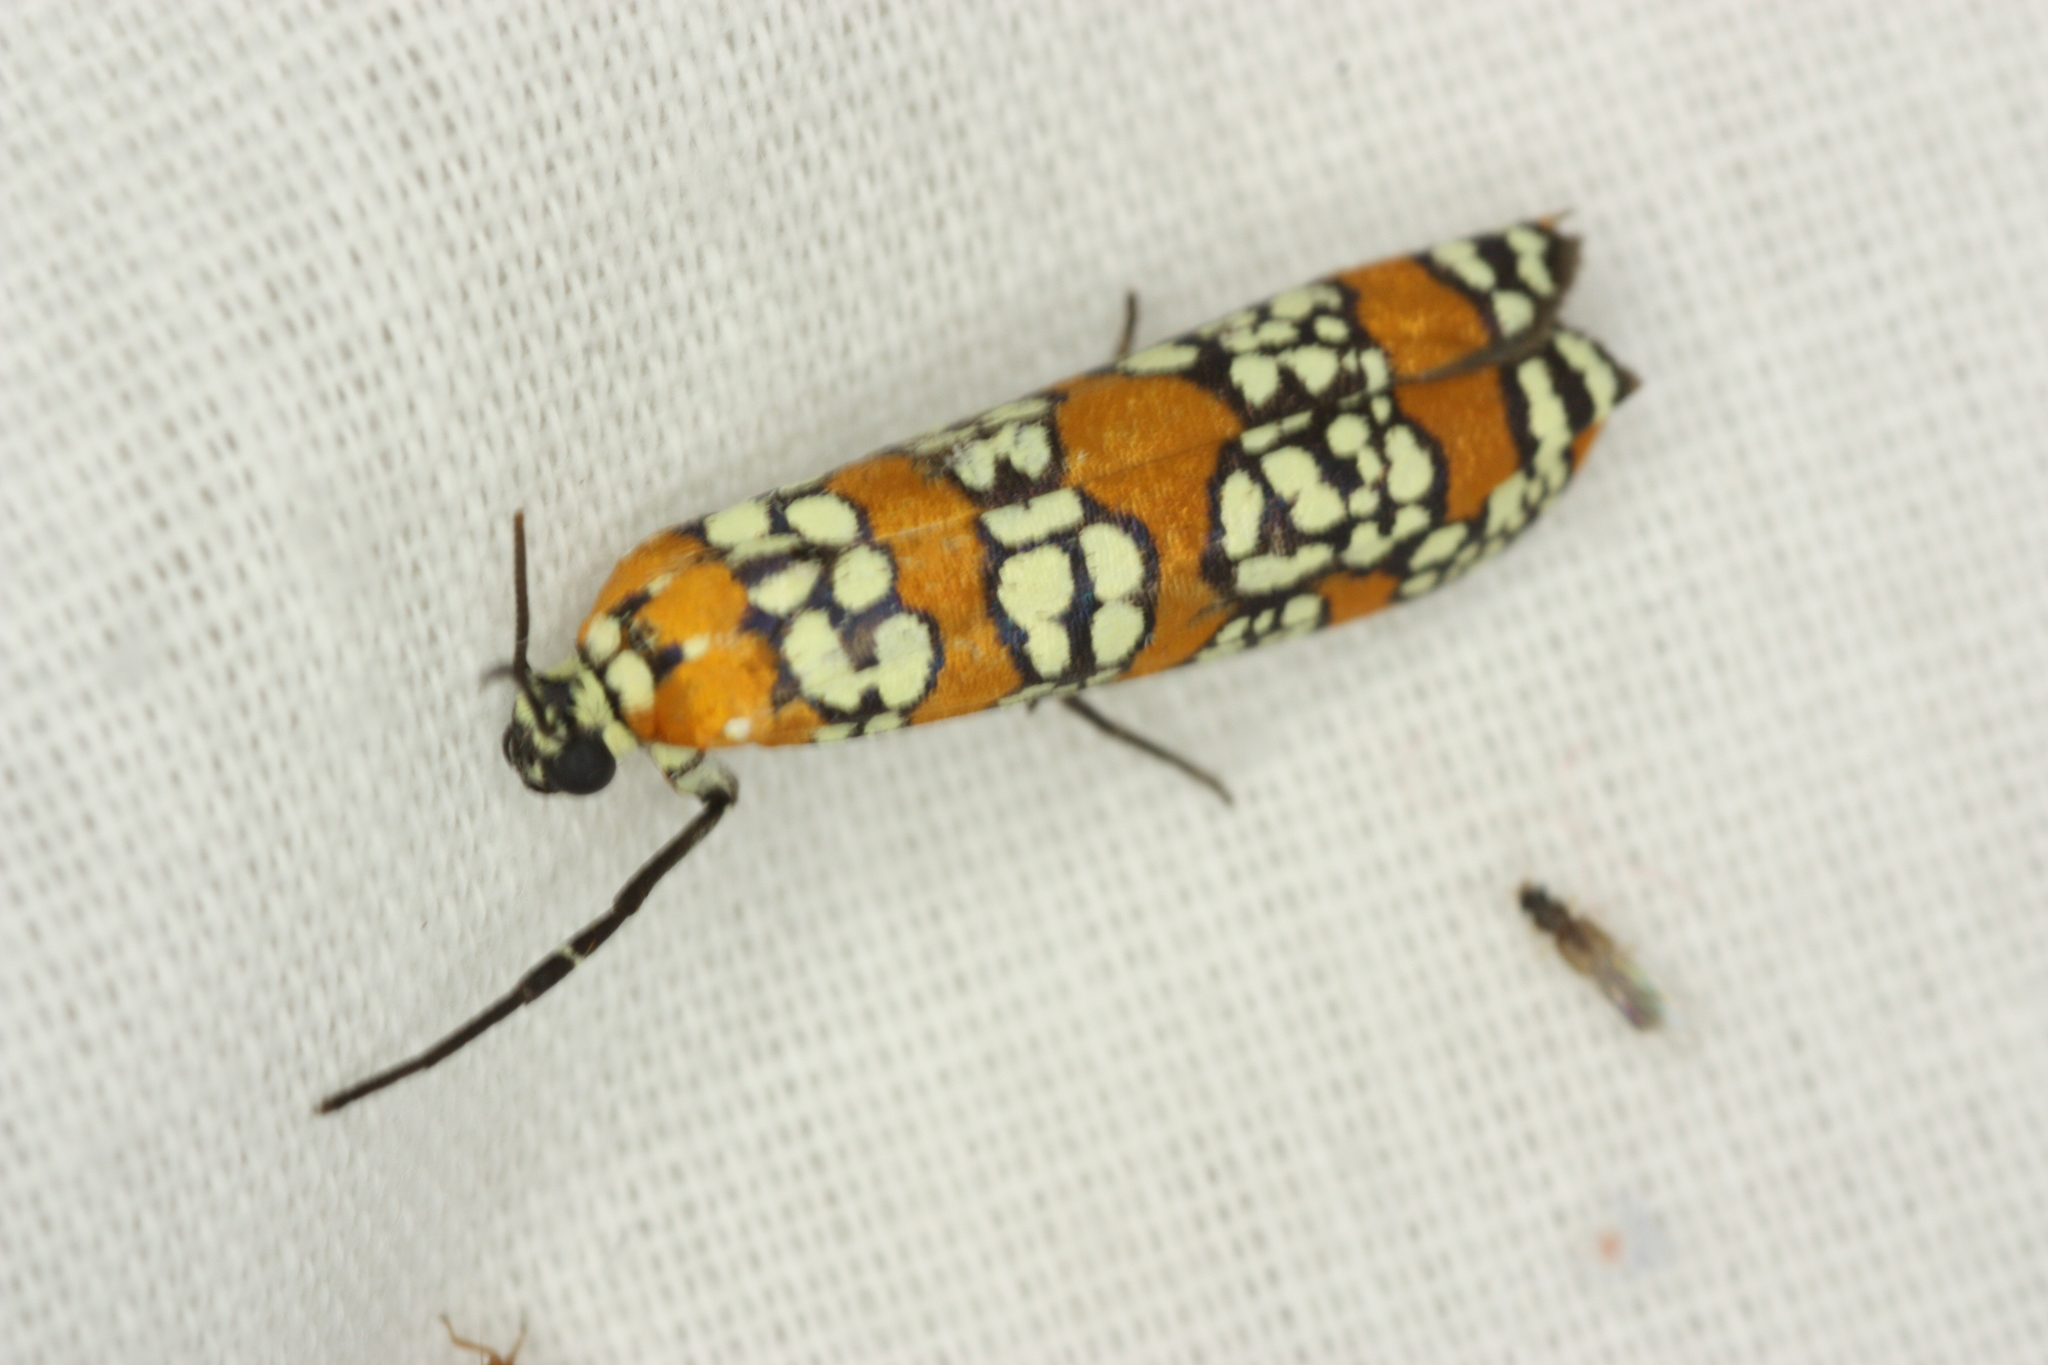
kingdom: Animalia
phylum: Arthropoda
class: Insecta
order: Lepidoptera
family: Attevidae
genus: Atteva
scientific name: Atteva punctella
